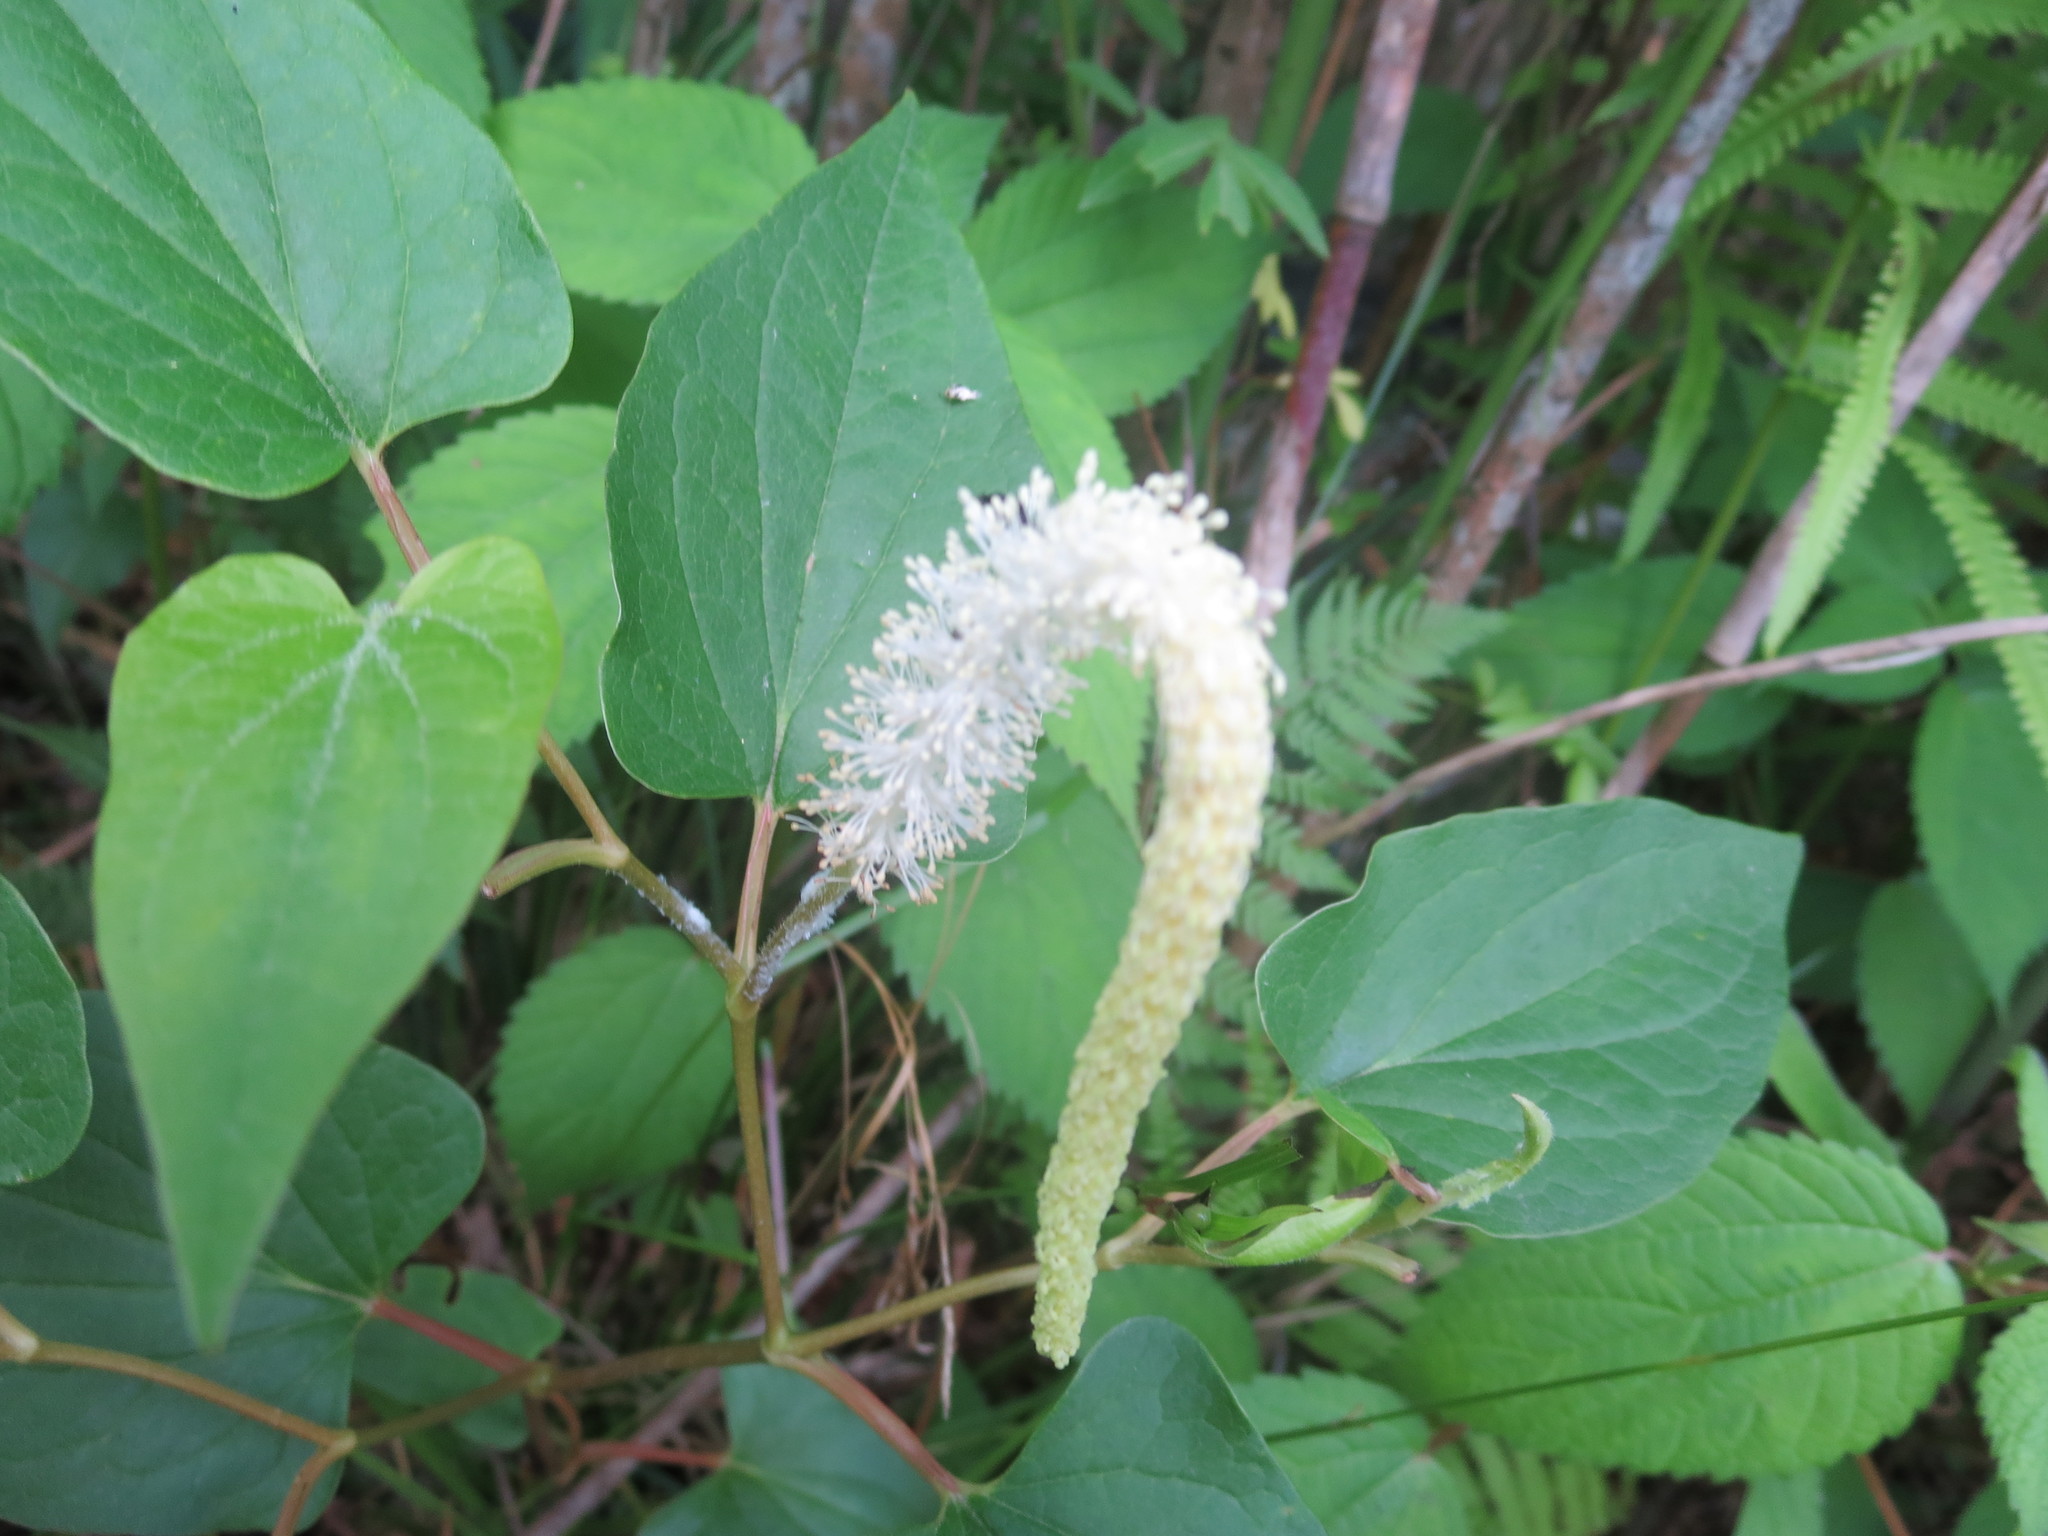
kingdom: Plantae
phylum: Tracheophyta
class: Magnoliopsida
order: Piperales
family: Saururaceae
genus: Saururus
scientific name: Saururus cernuus
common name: Lizard's-tail
